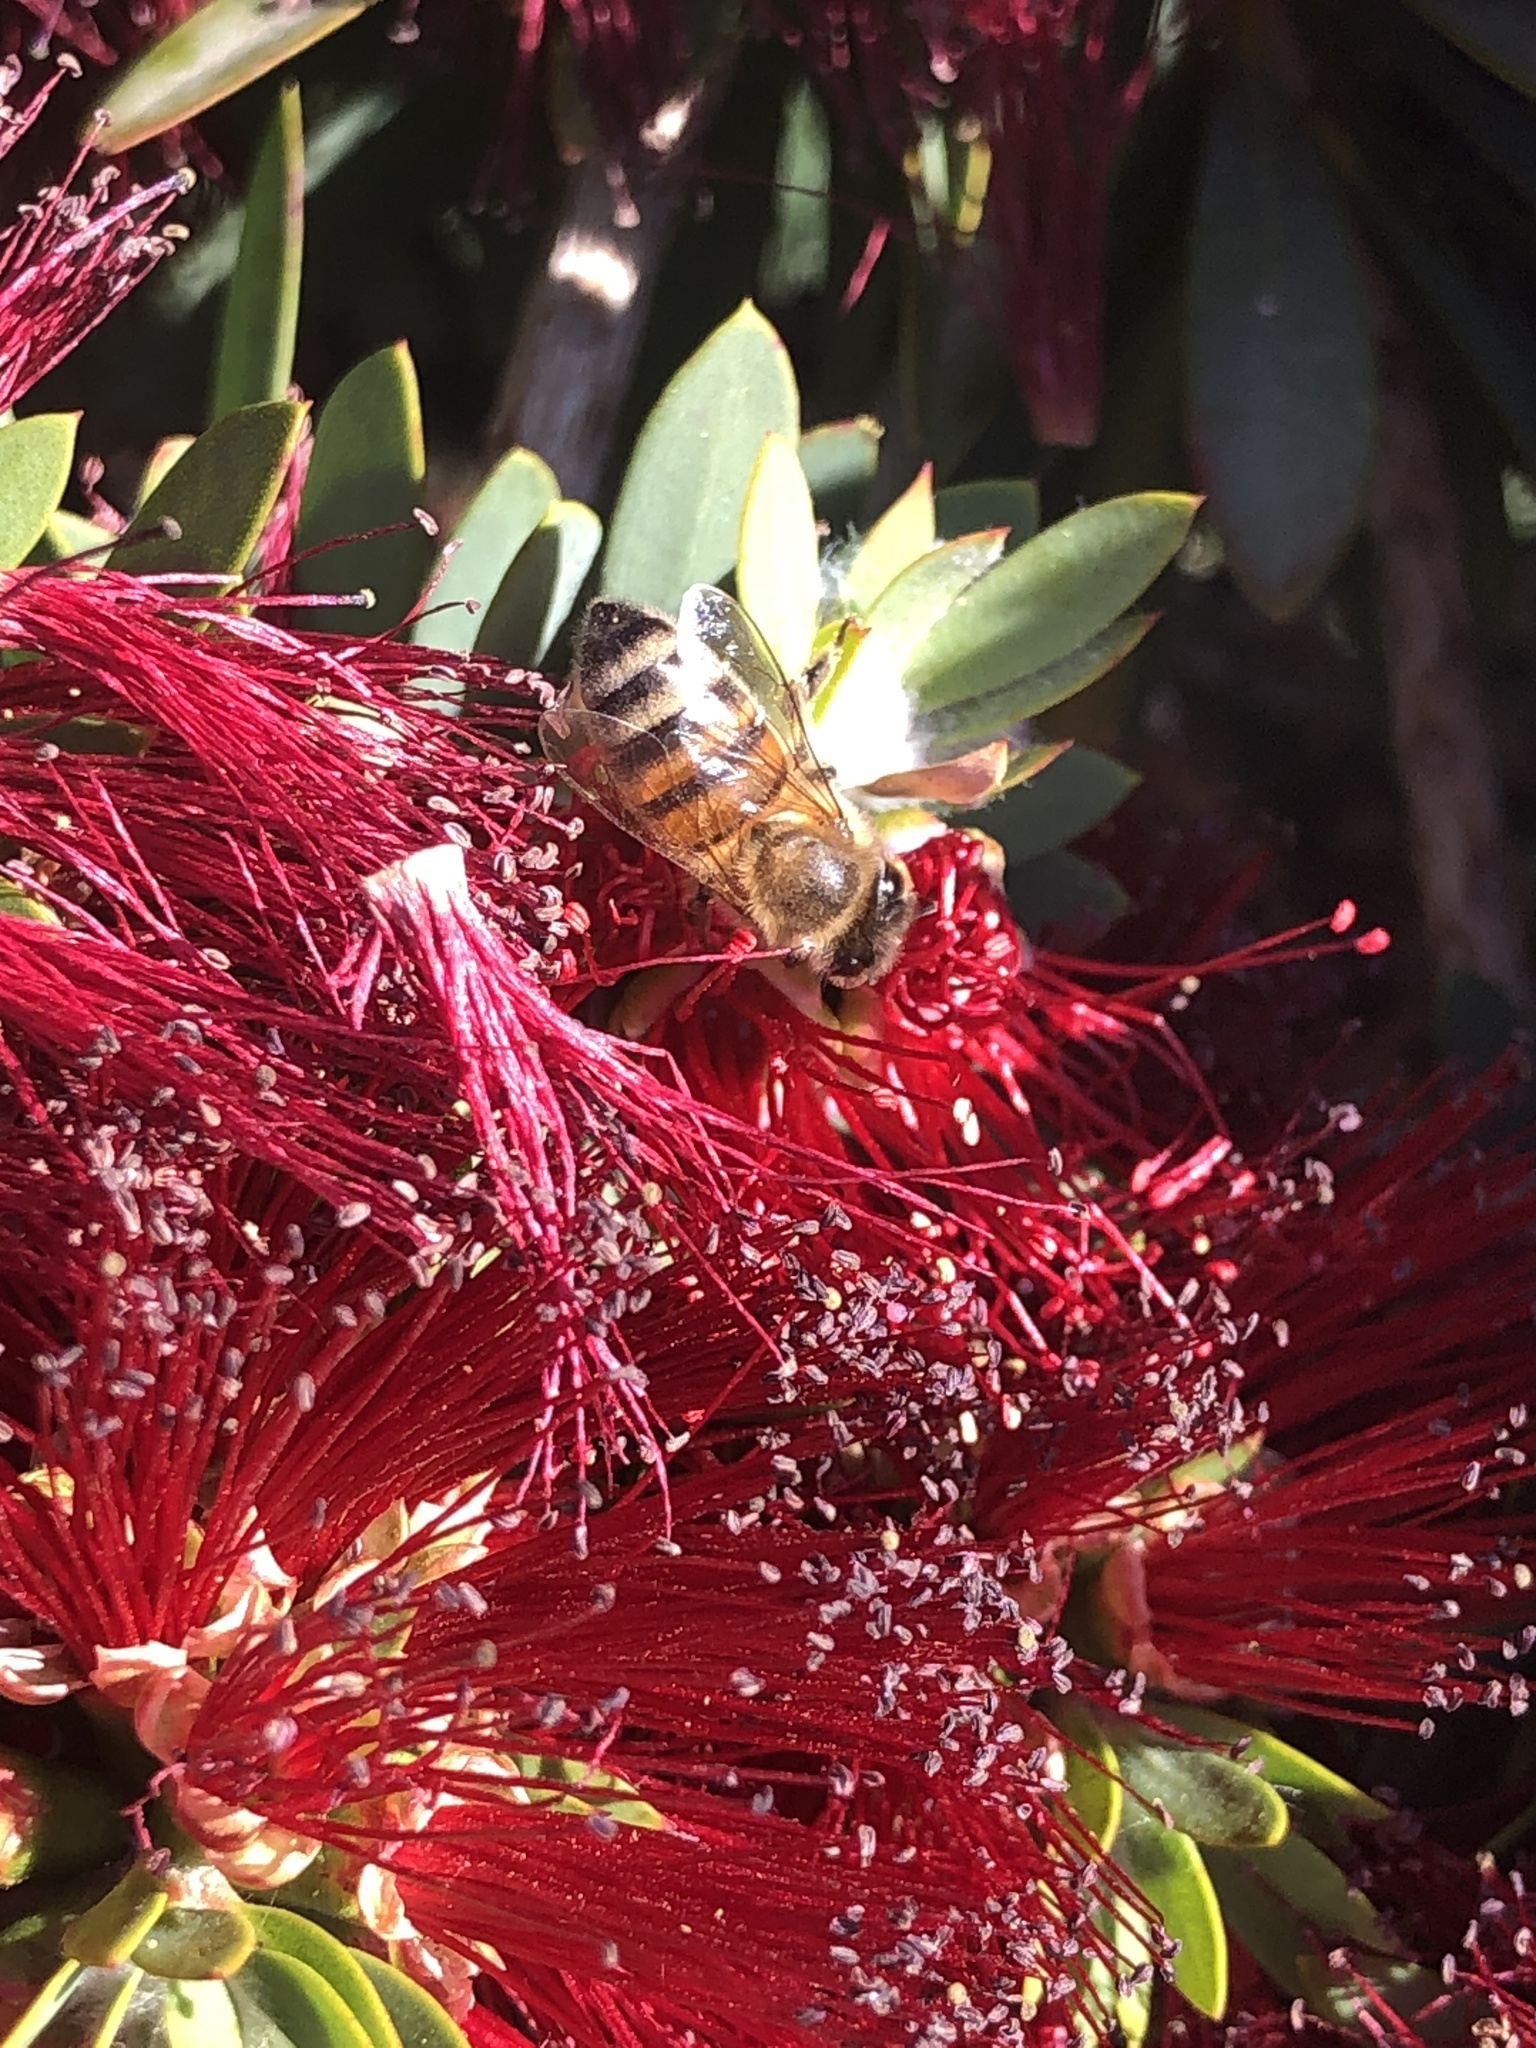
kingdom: Animalia
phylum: Arthropoda
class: Insecta
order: Hymenoptera
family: Apidae
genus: Apis
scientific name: Apis mellifera
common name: Honey bee
